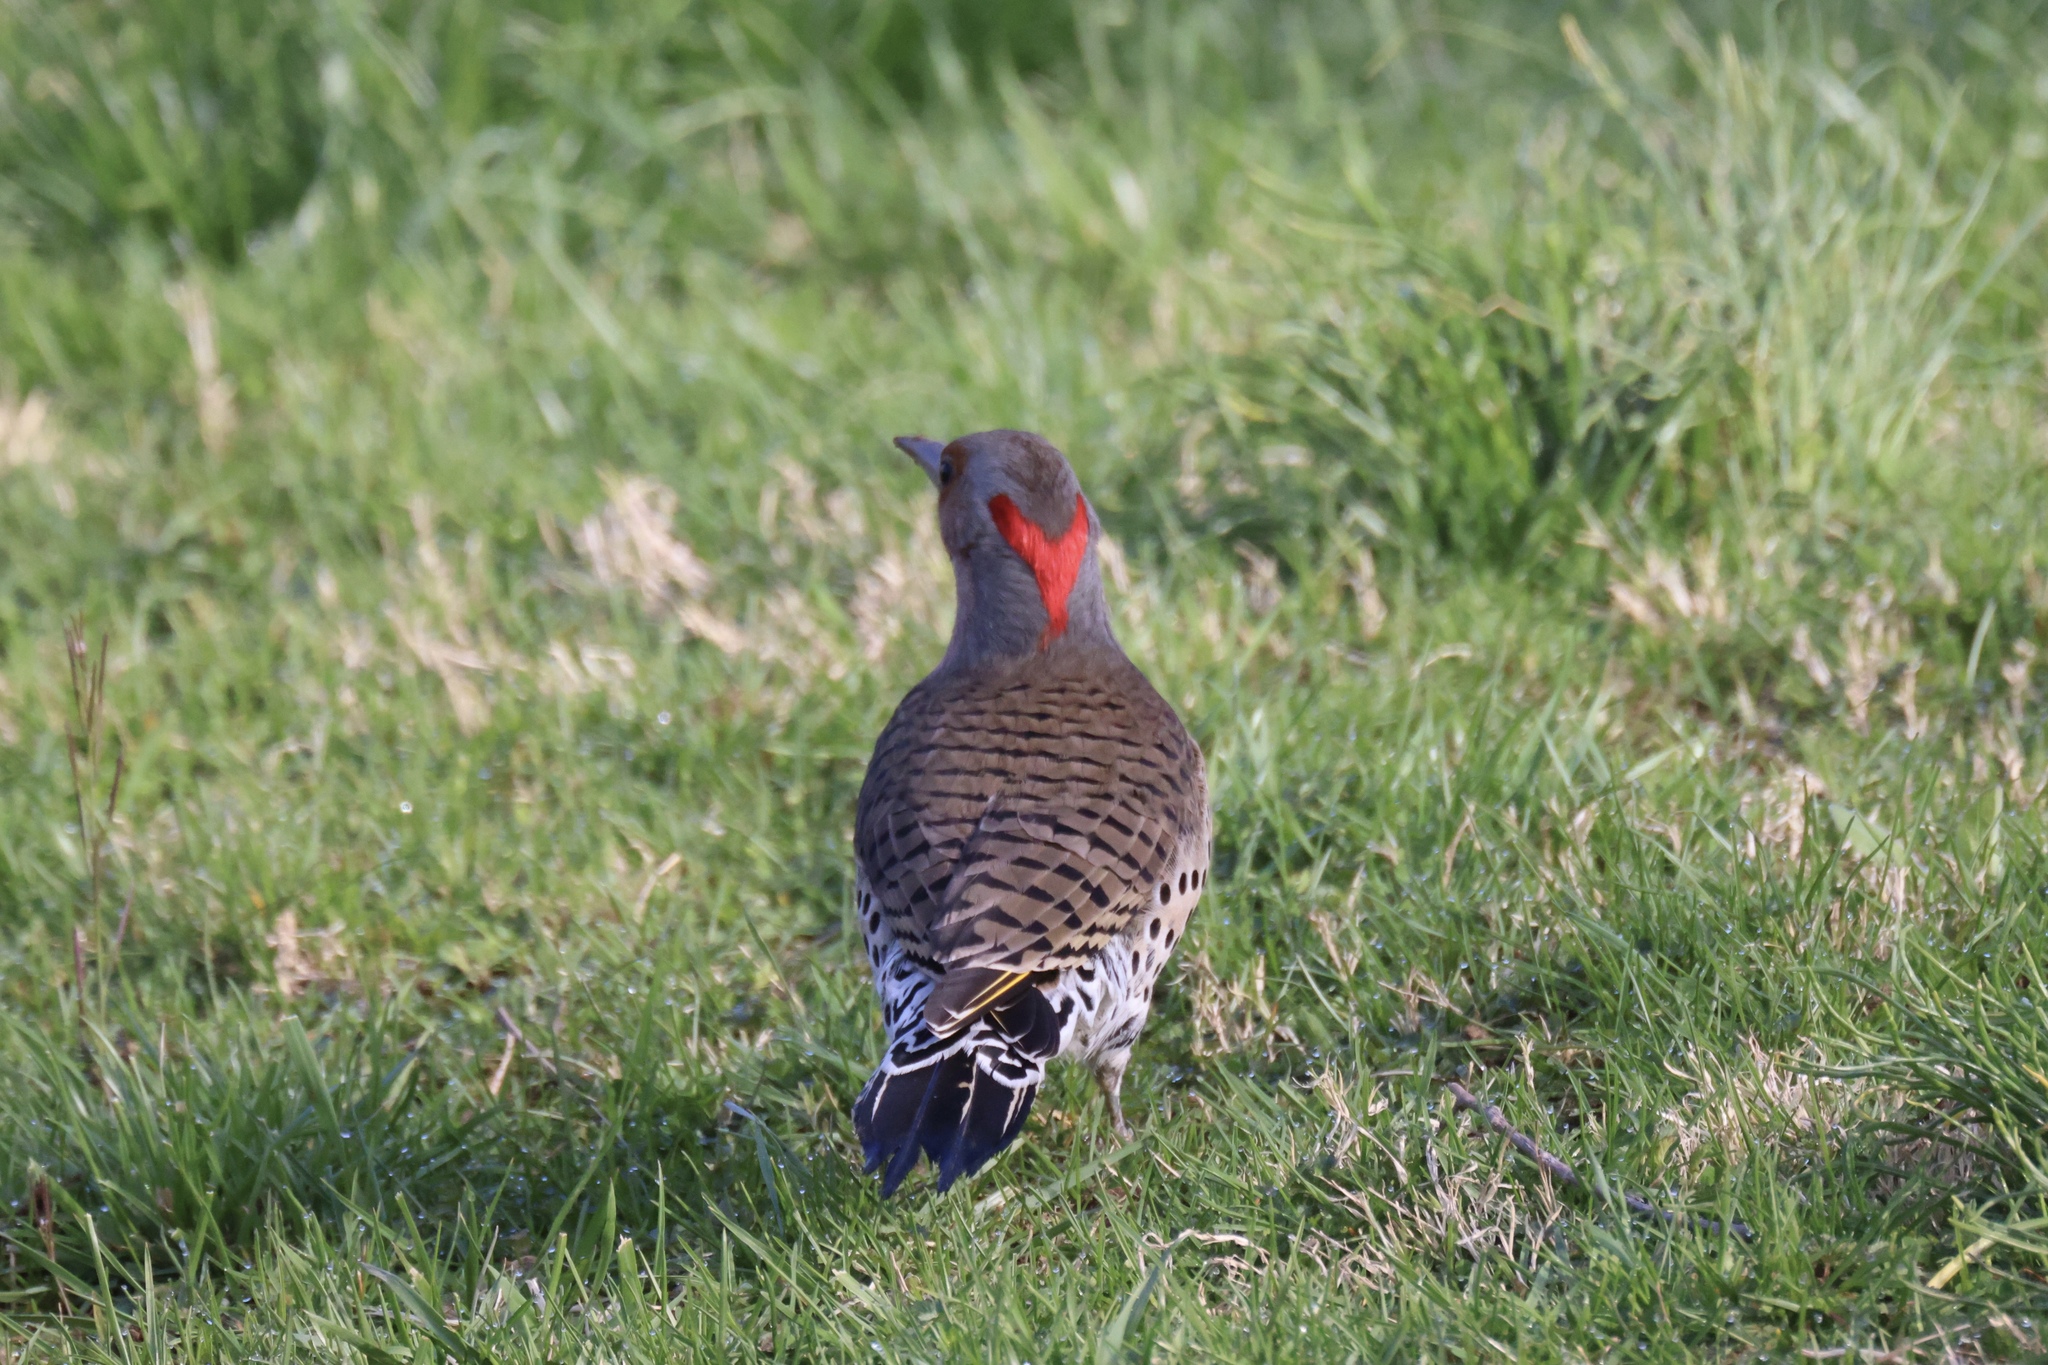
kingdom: Animalia
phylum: Chordata
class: Aves
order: Piciformes
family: Picidae
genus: Colaptes
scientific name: Colaptes auratus
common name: Northern flicker
